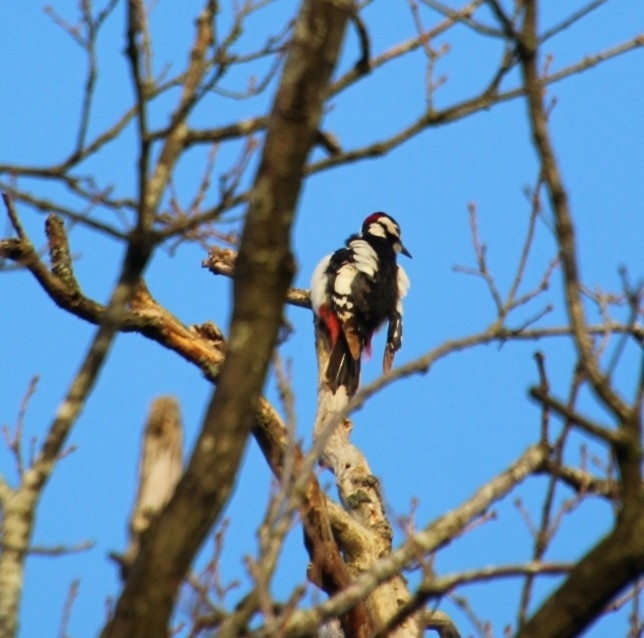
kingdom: Animalia
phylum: Chordata
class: Aves
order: Piciformes
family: Picidae
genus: Dendrocopos
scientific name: Dendrocopos major
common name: Great spotted woodpecker
